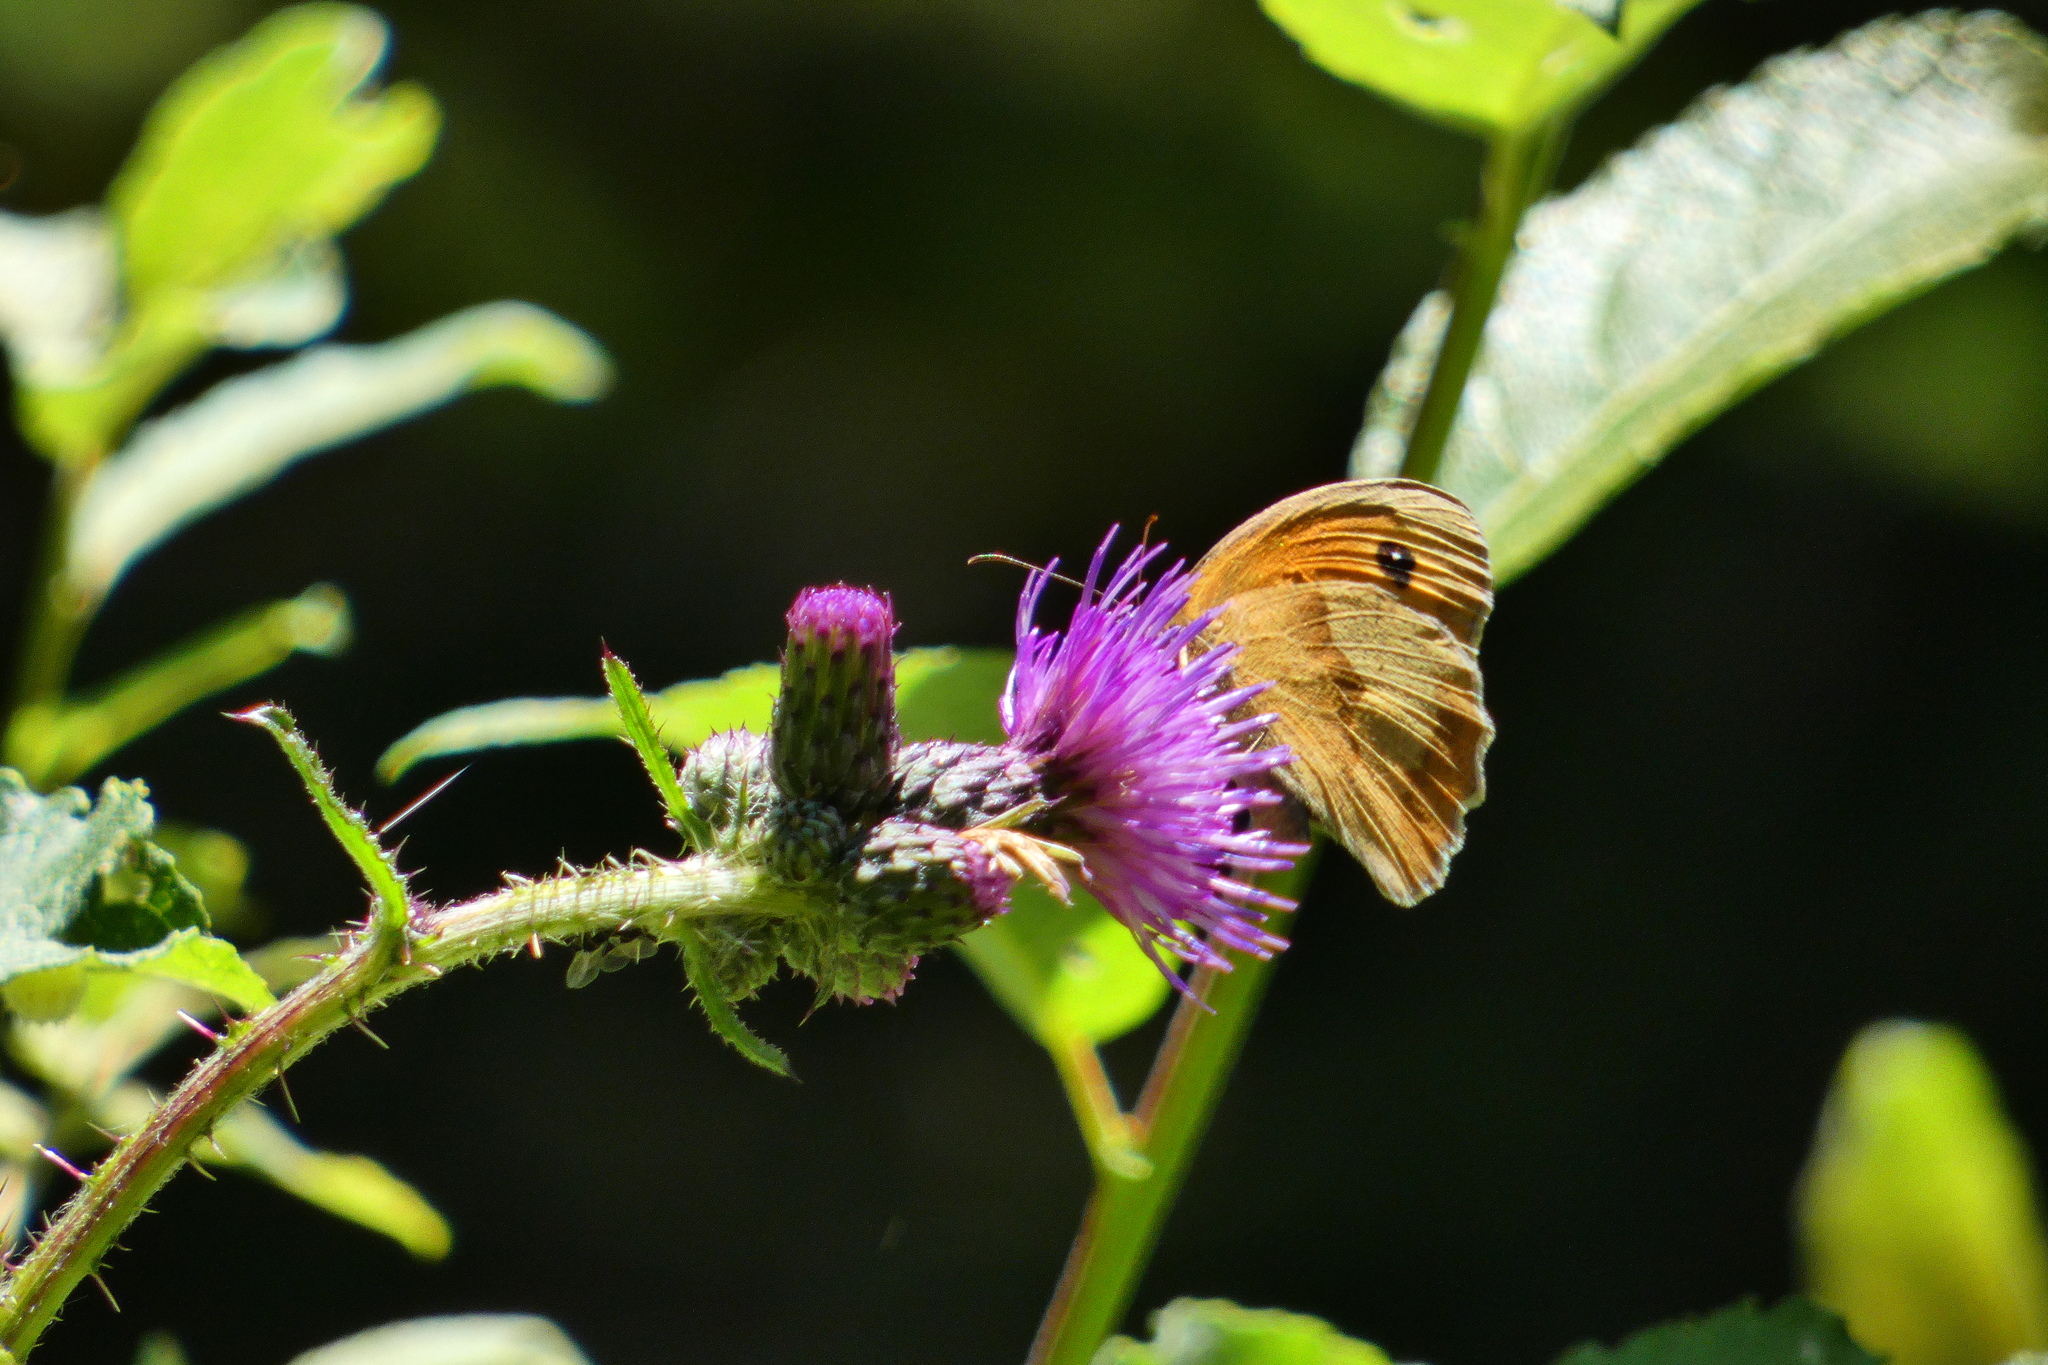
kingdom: Animalia
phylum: Arthropoda
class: Insecta
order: Lepidoptera
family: Nymphalidae
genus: Maniola
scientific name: Maniola jurtina
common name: Meadow brown
